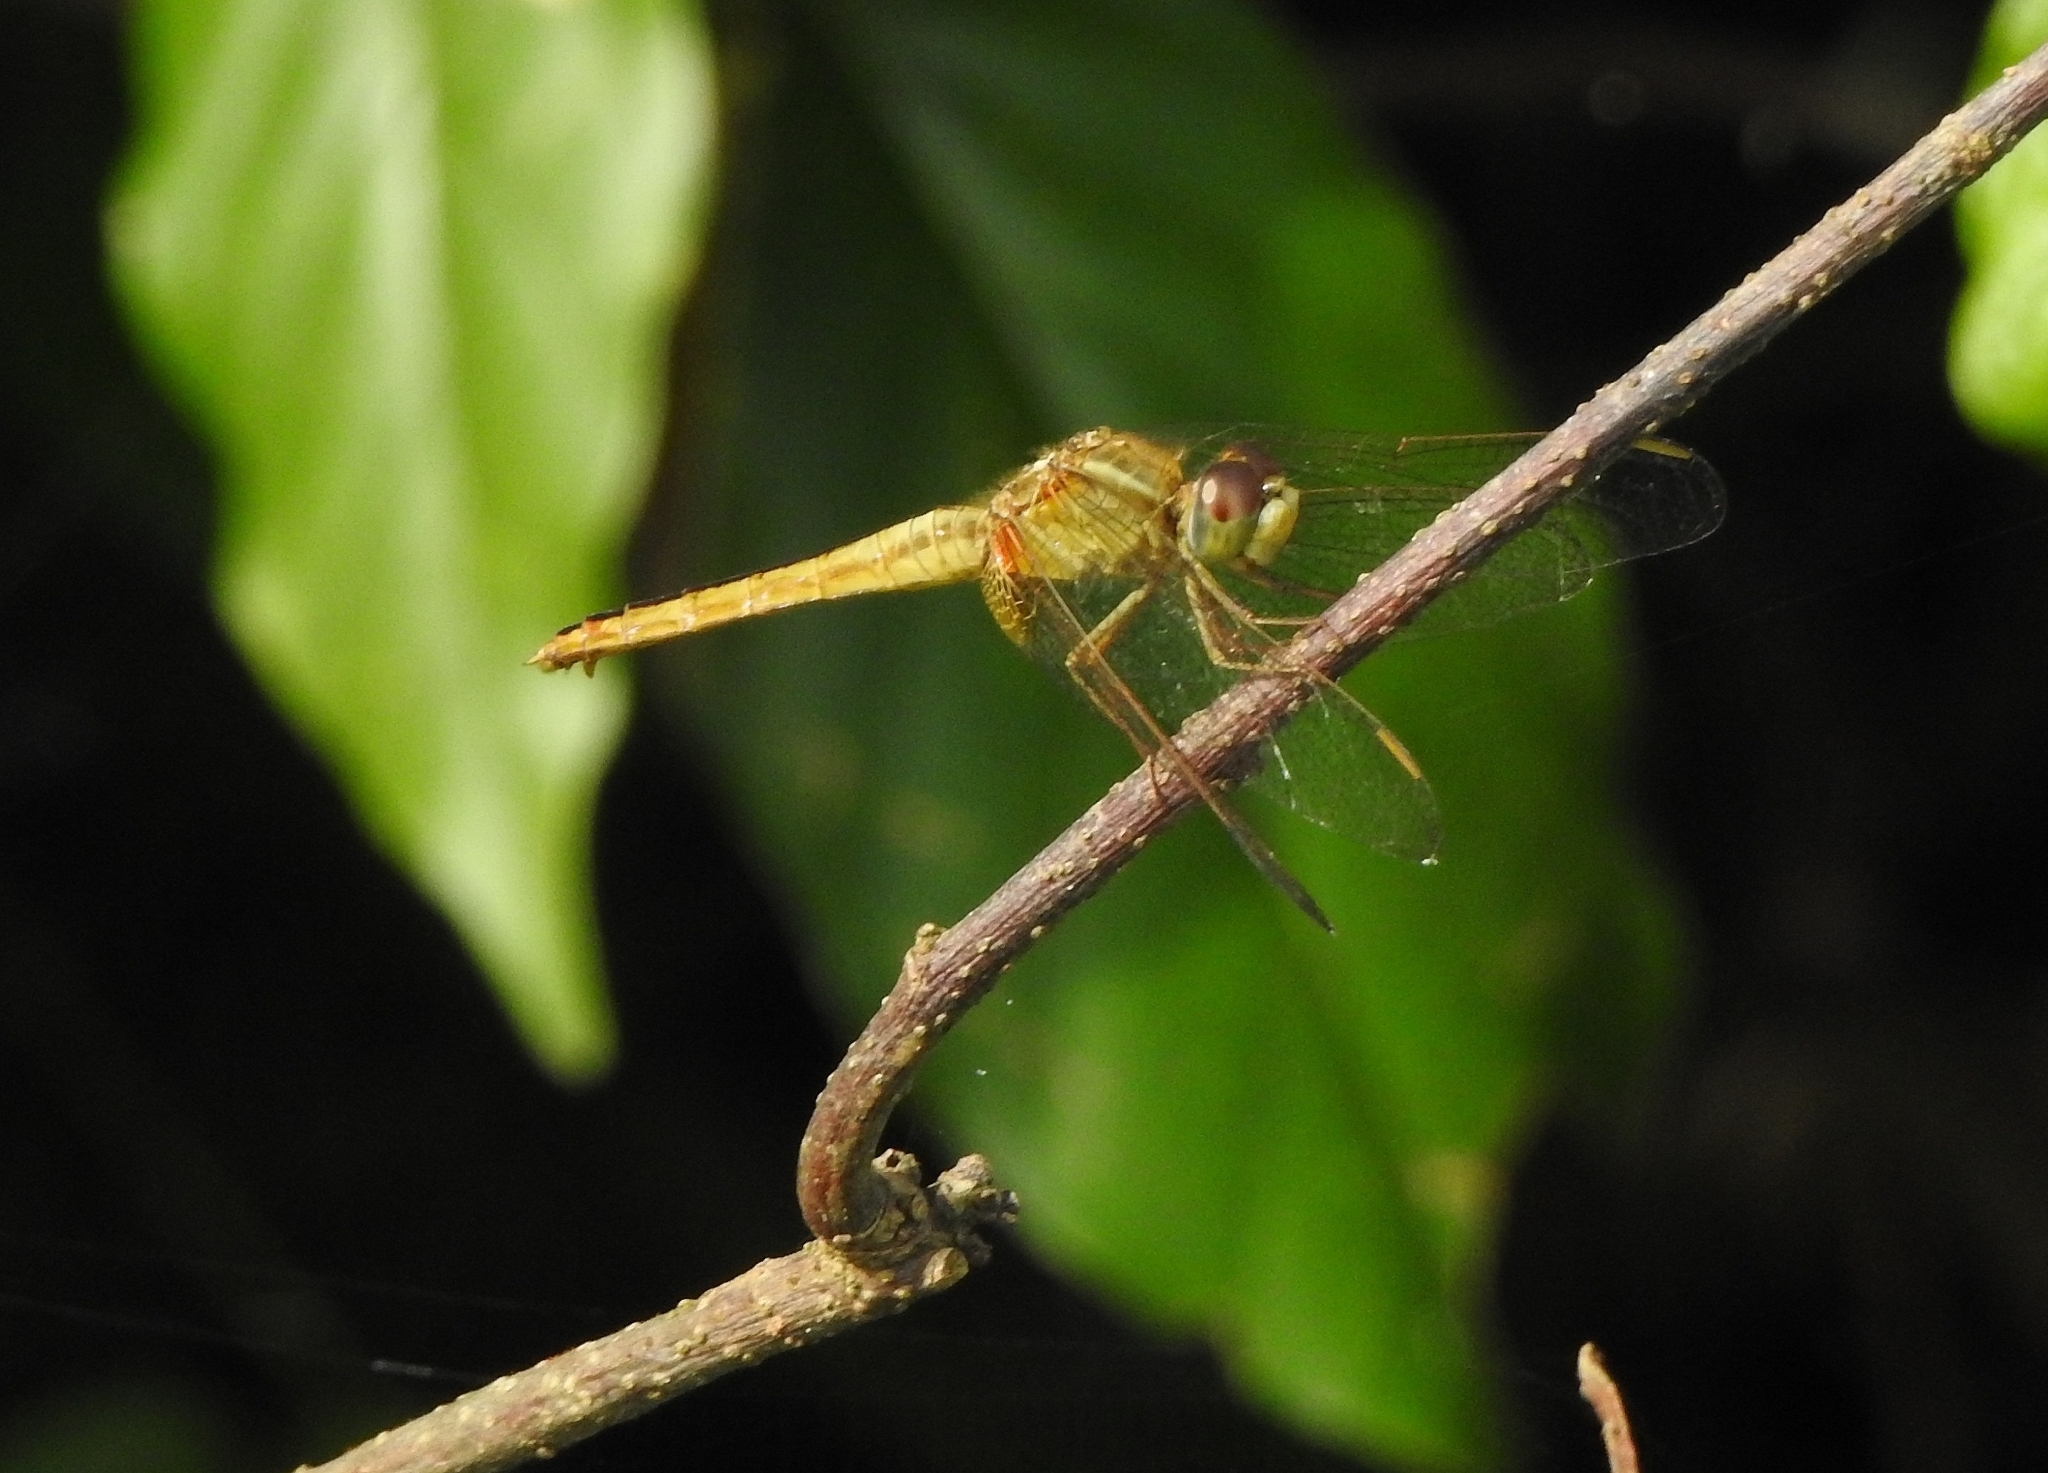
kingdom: Animalia
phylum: Arthropoda
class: Insecta
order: Odonata
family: Libellulidae
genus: Crocothemis
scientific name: Crocothemis servilia
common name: Scarlet skimmer
